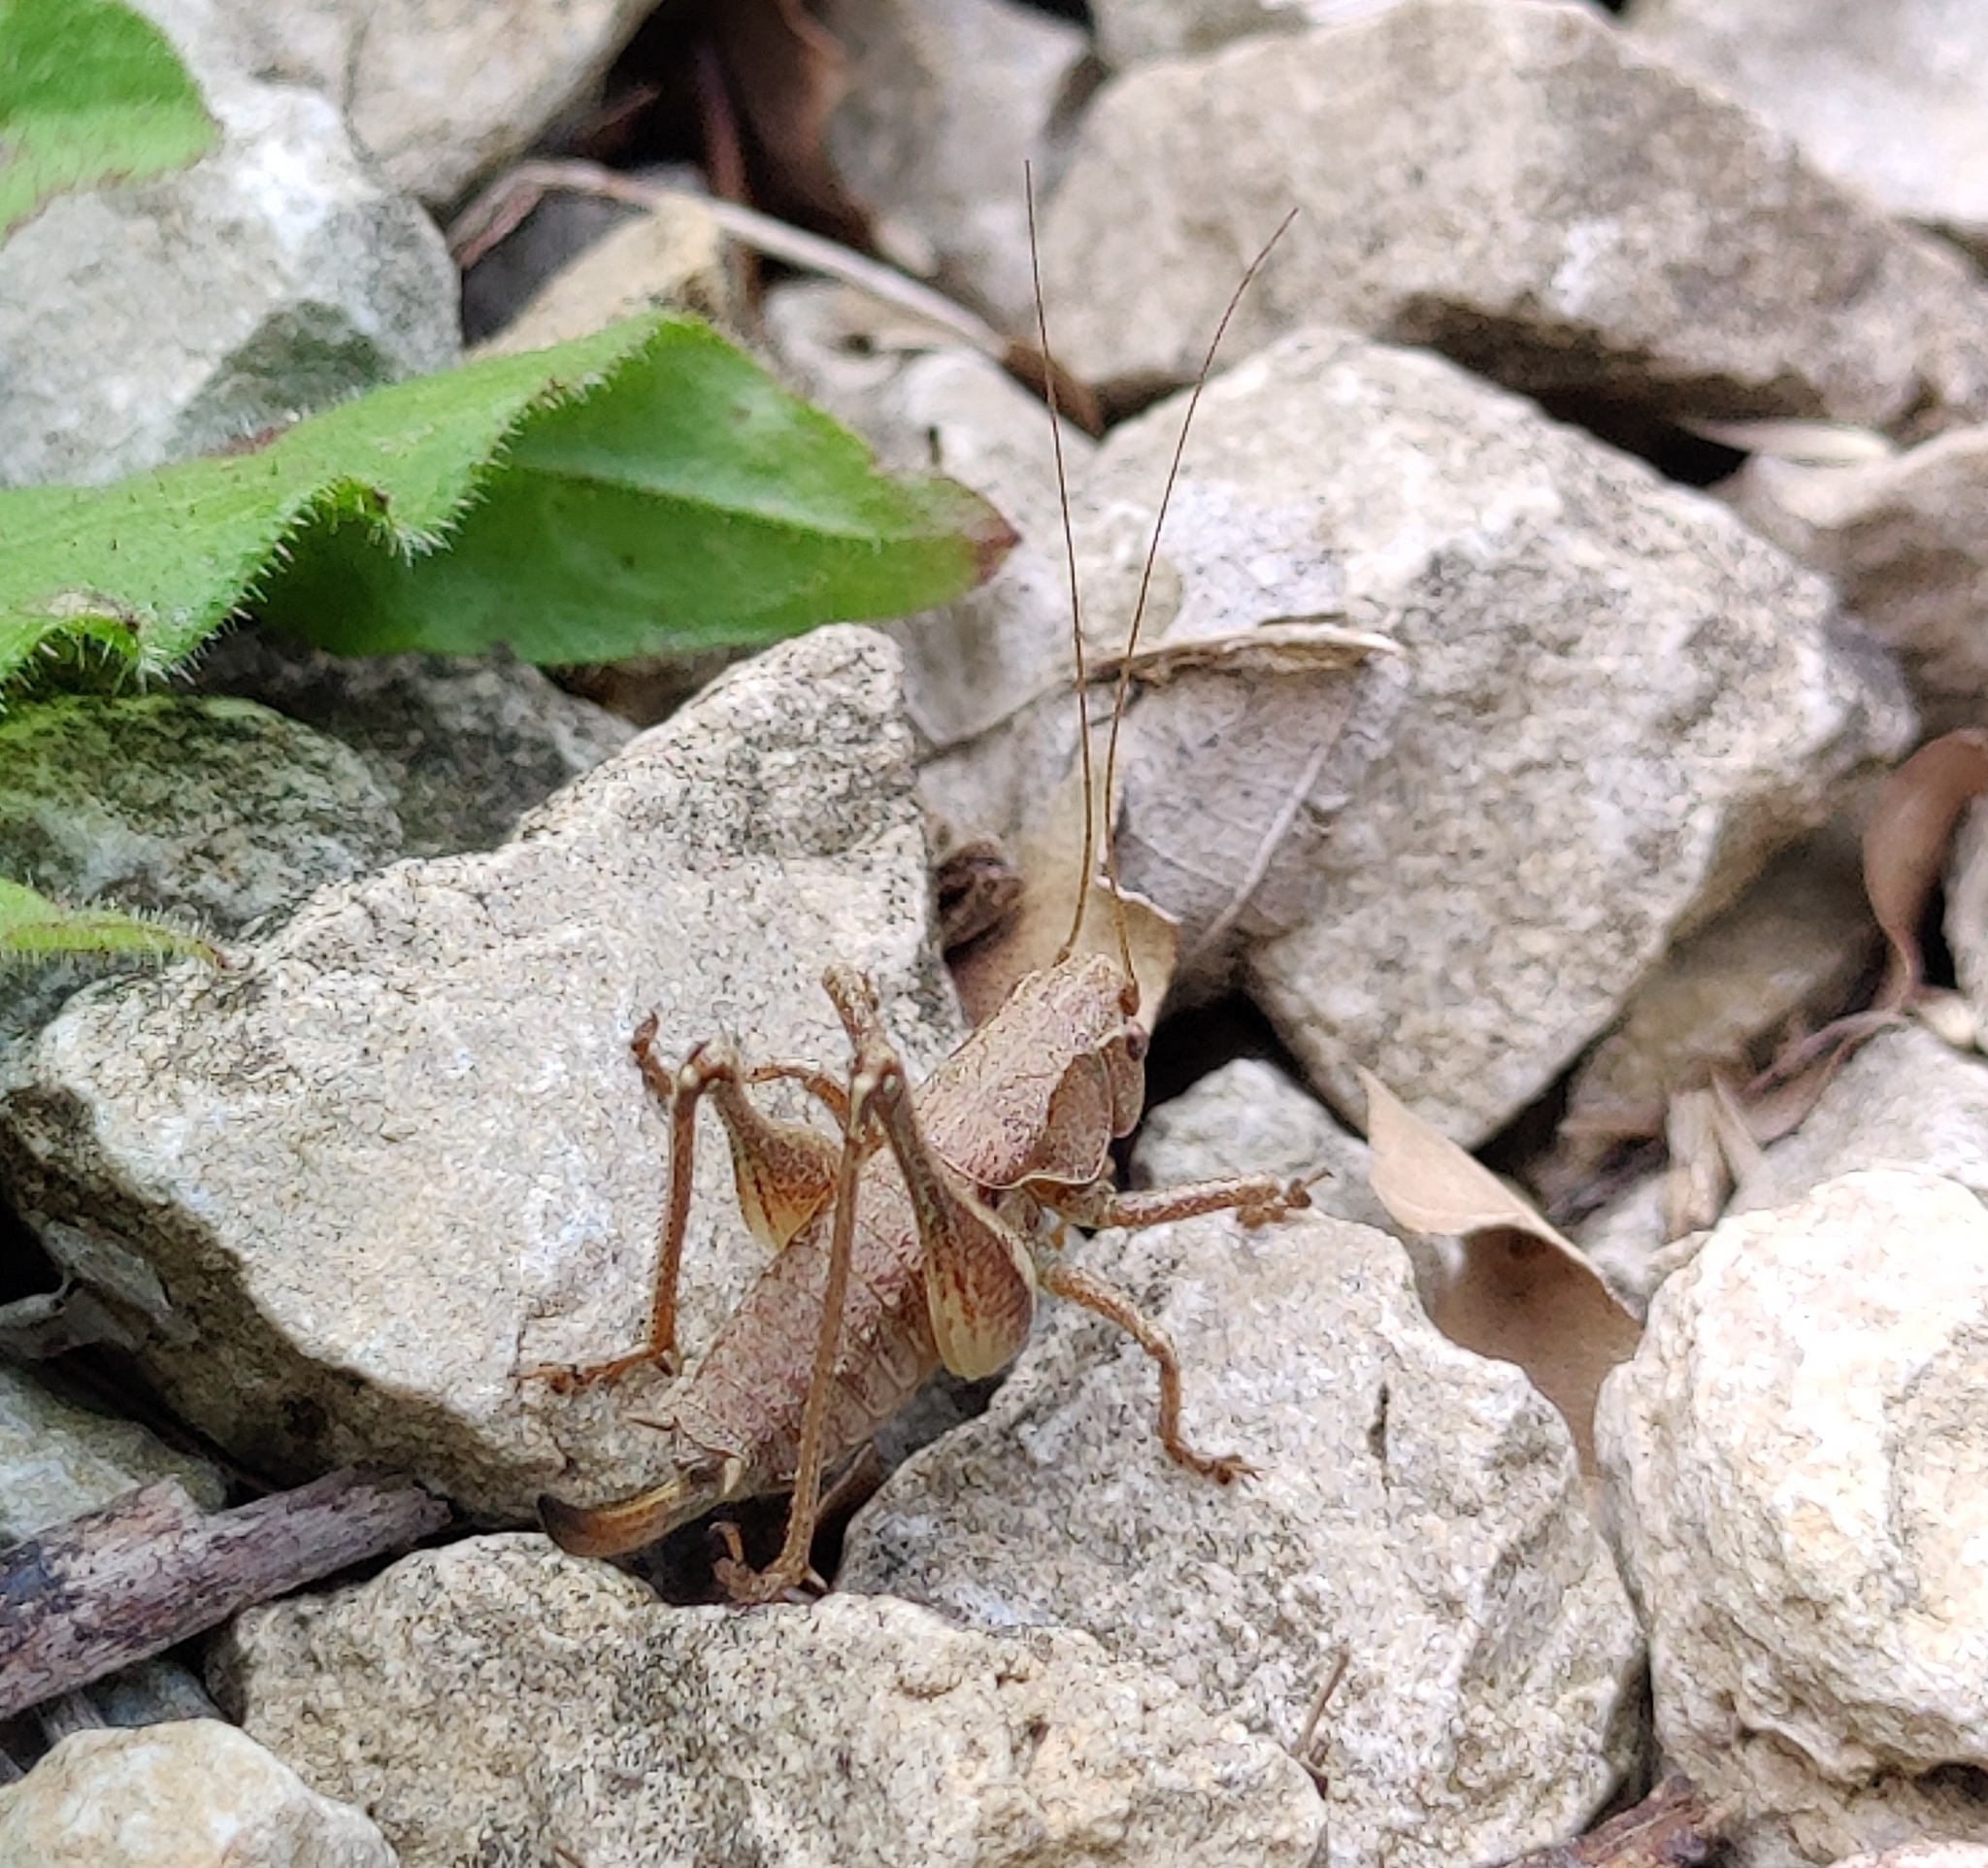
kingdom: Animalia
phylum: Arthropoda
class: Insecta
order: Orthoptera
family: Tettigoniidae
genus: Pholidoptera
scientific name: Pholidoptera griseoaptera
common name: Dark bush-cricket
